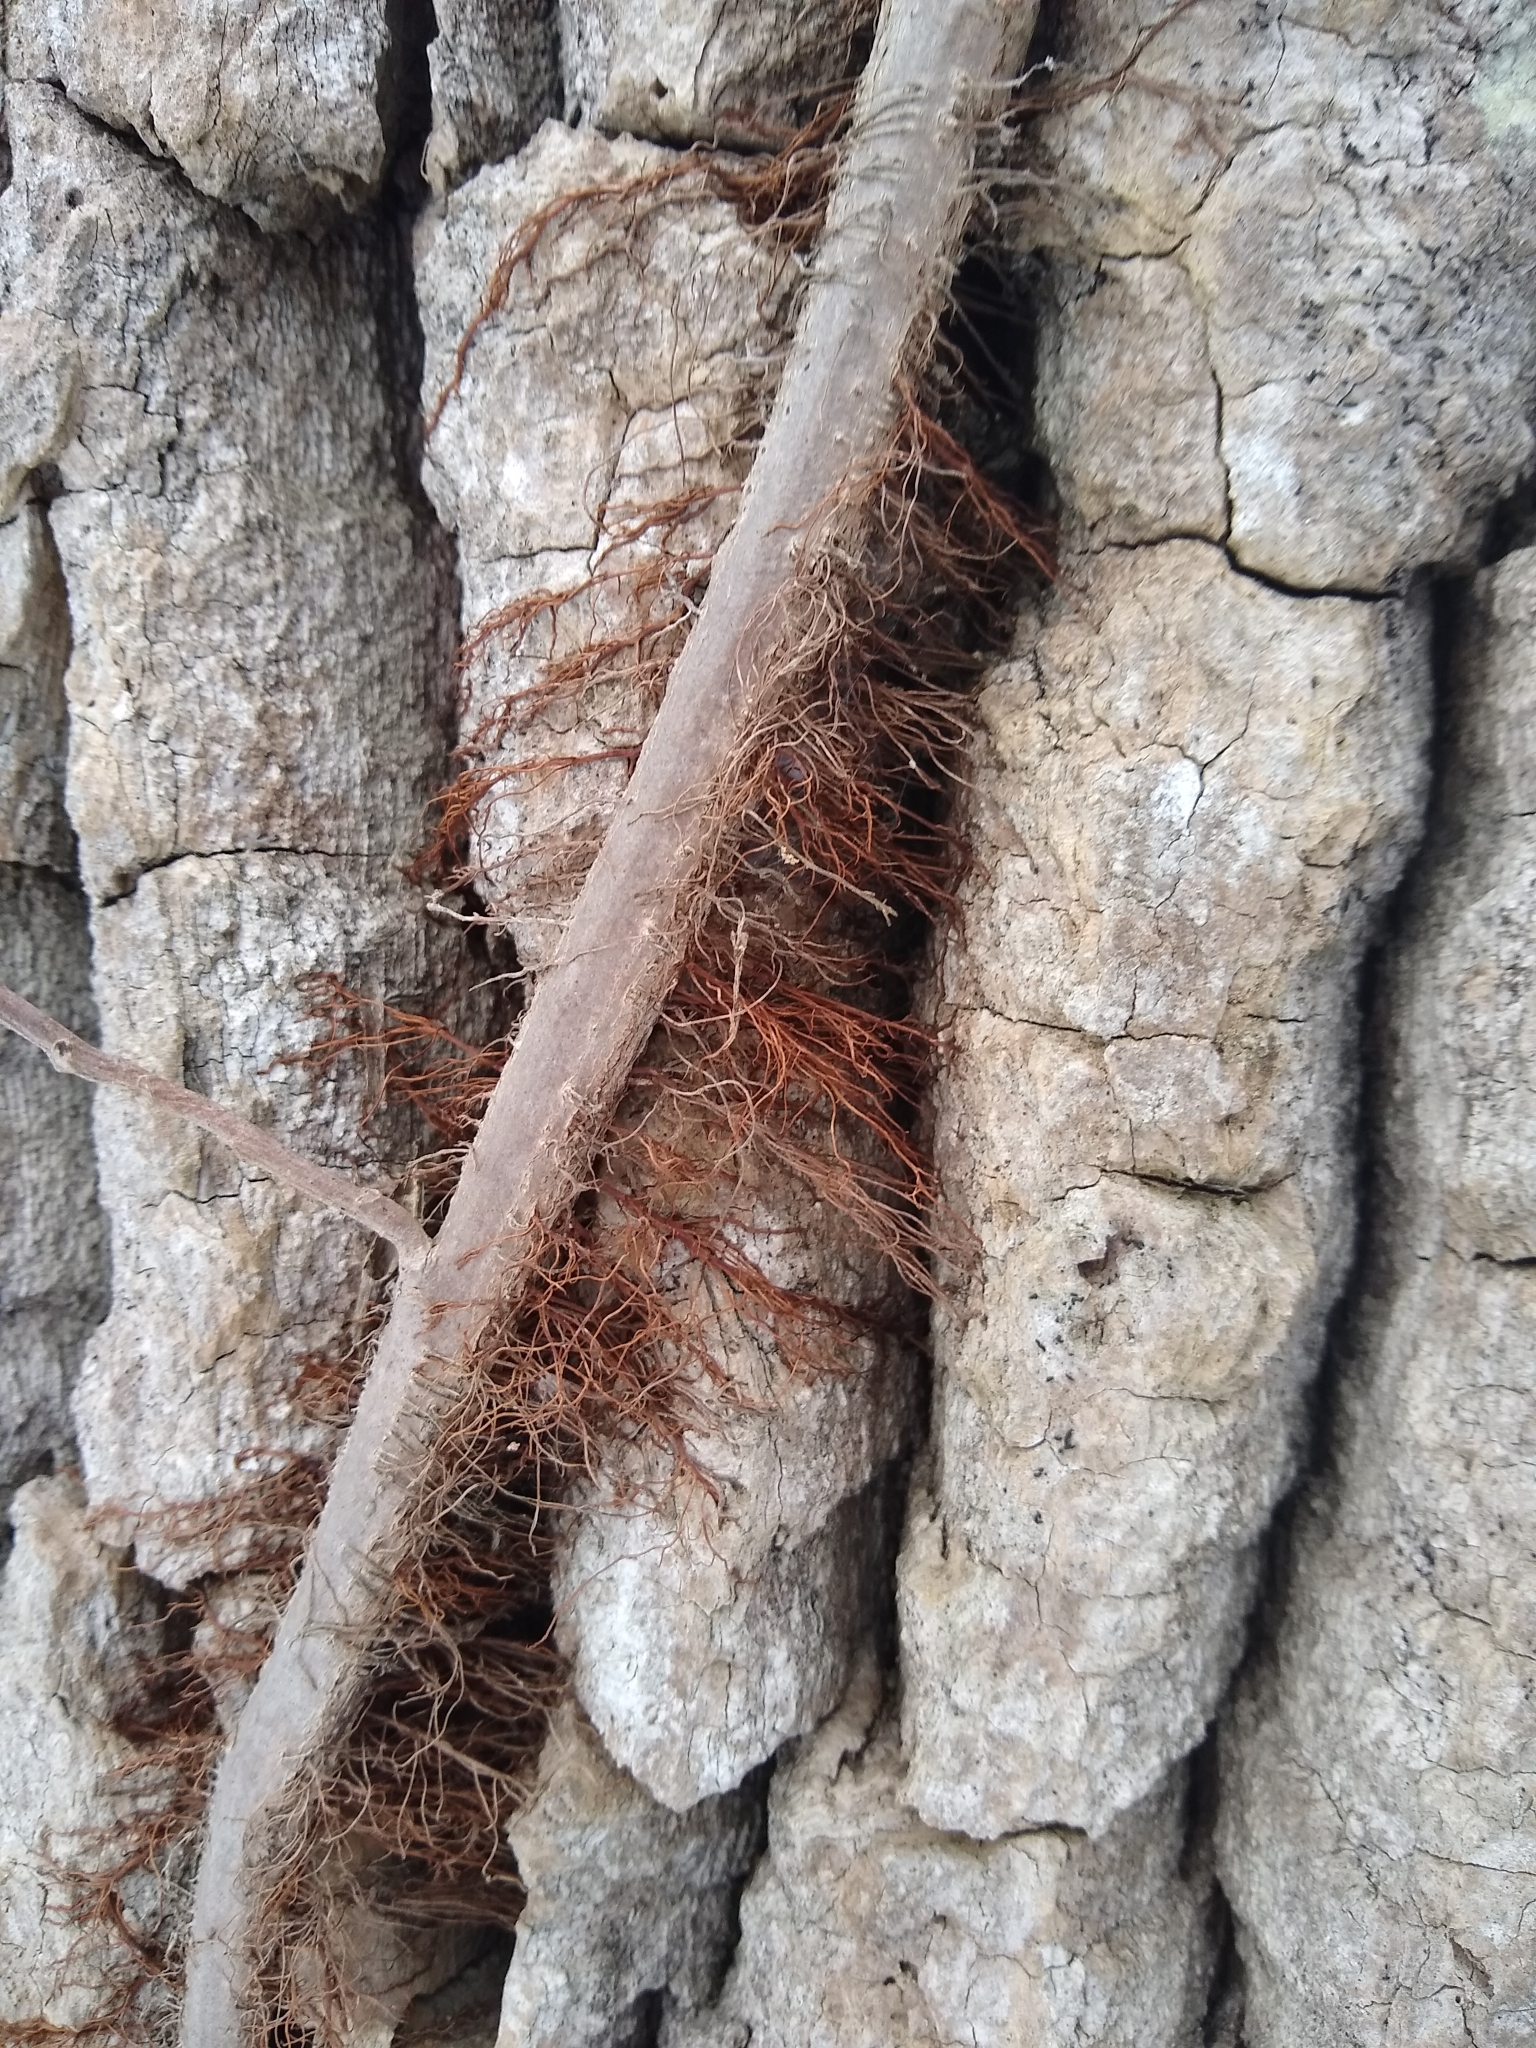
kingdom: Plantae
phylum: Tracheophyta
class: Magnoliopsida
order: Sapindales
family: Anacardiaceae
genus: Toxicodendron
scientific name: Toxicodendron radicans
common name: Poison ivy
